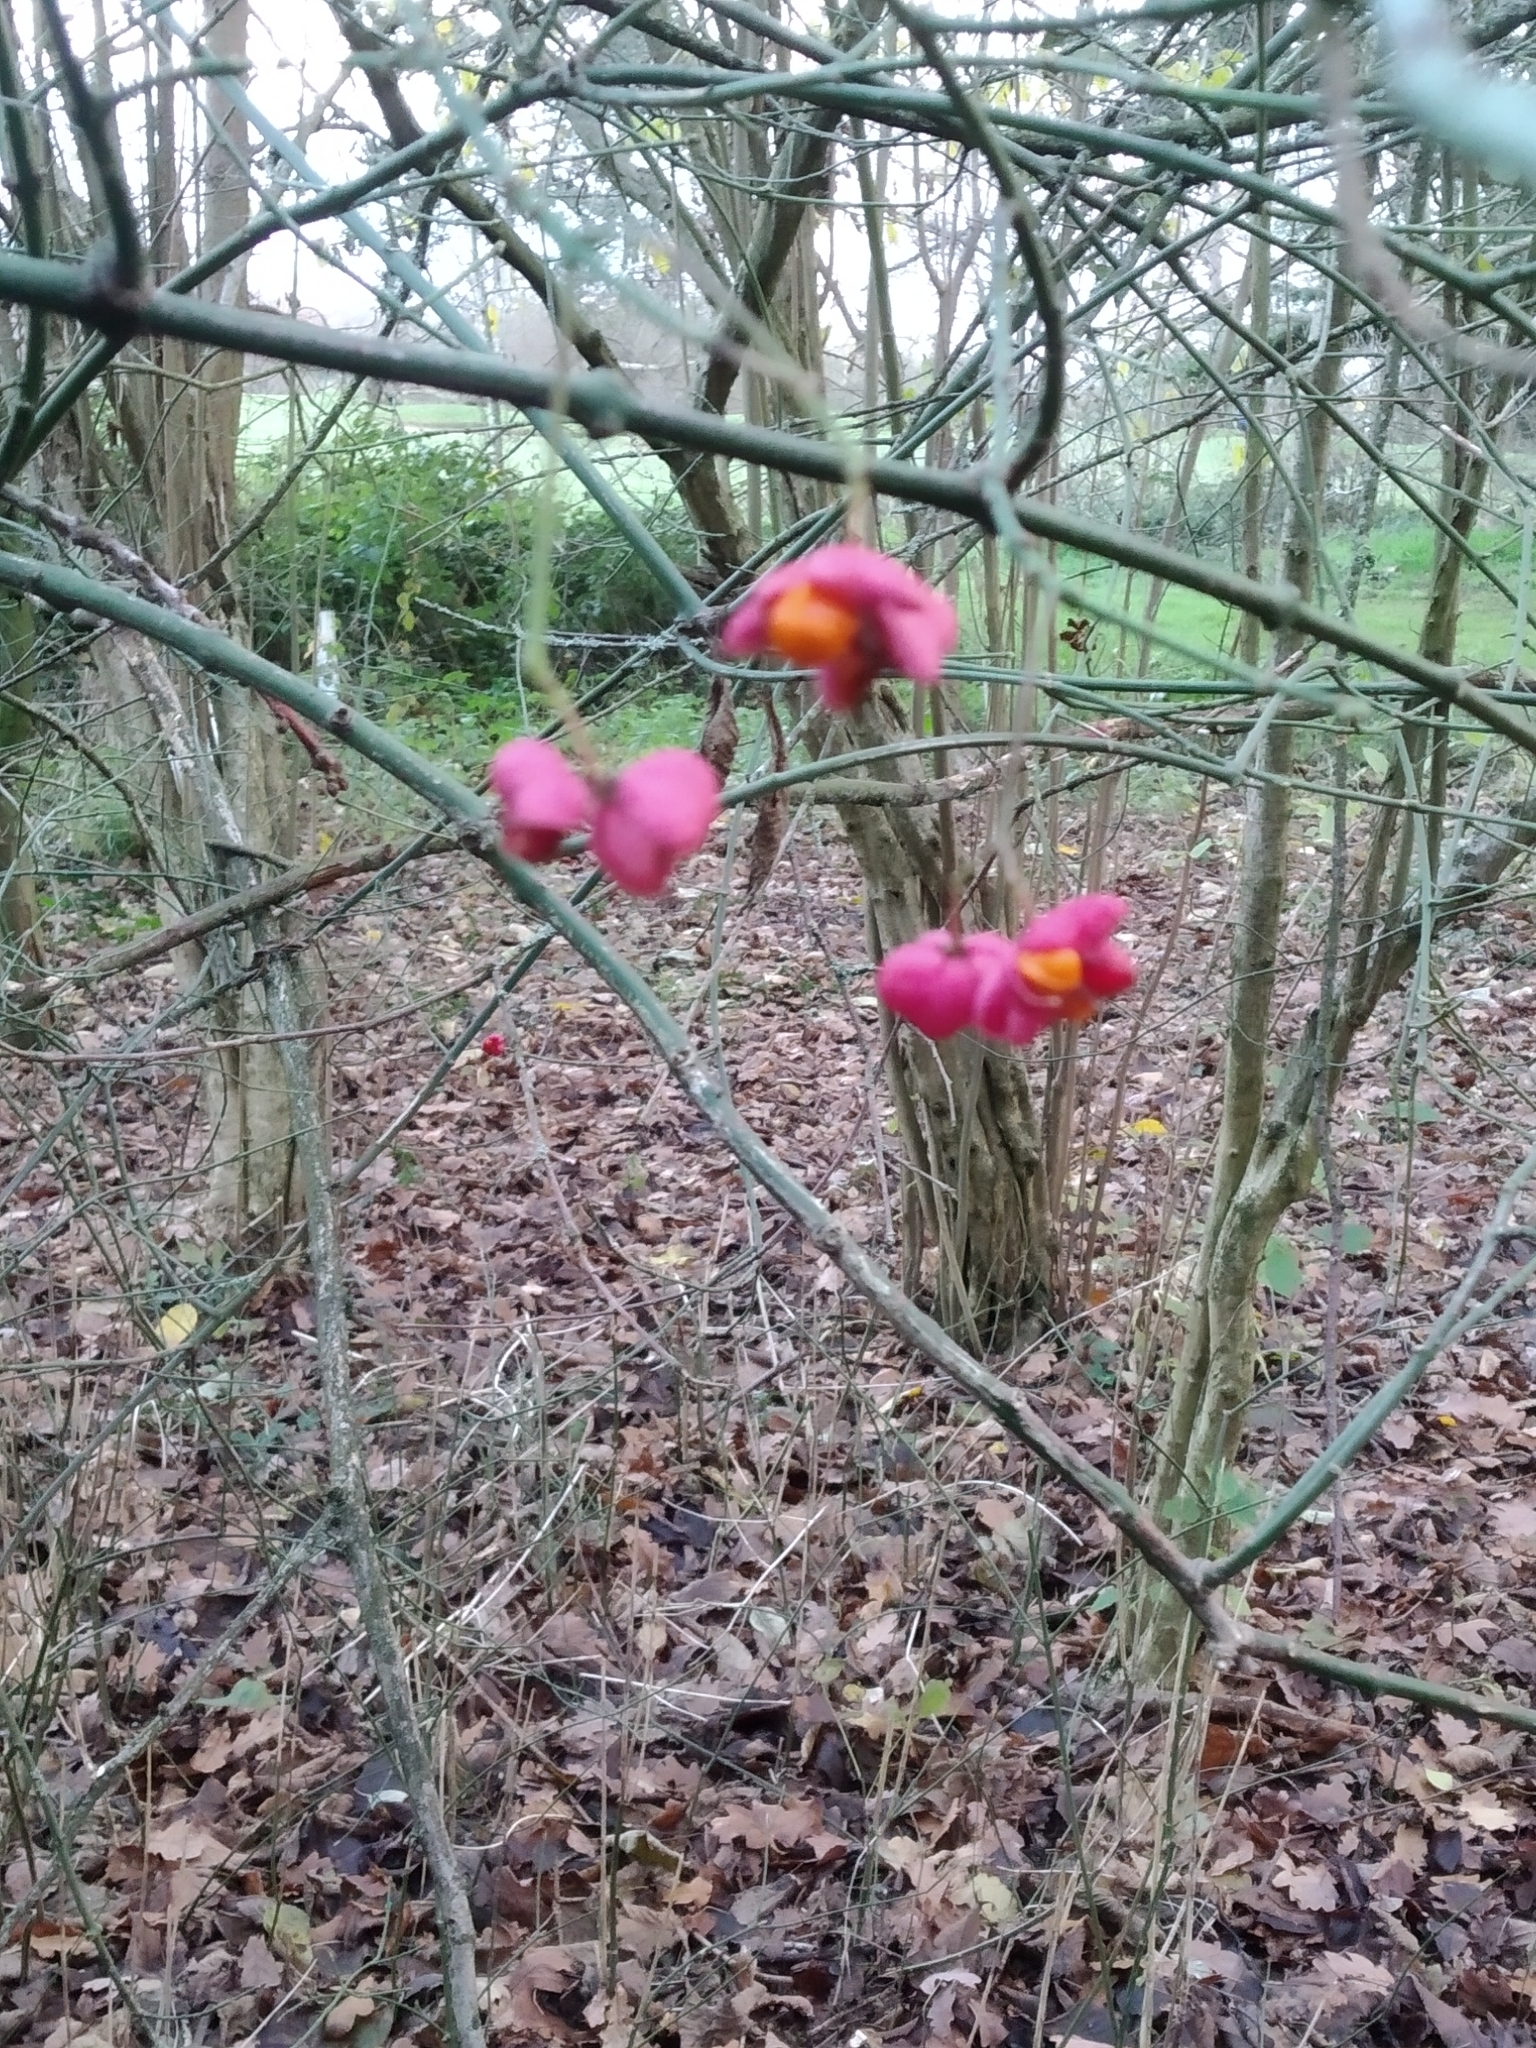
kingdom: Plantae
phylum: Tracheophyta
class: Magnoliopsida
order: Celastrales
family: Celastraceae
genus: Euonymus
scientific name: Euonymus europaeus
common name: Spindle
